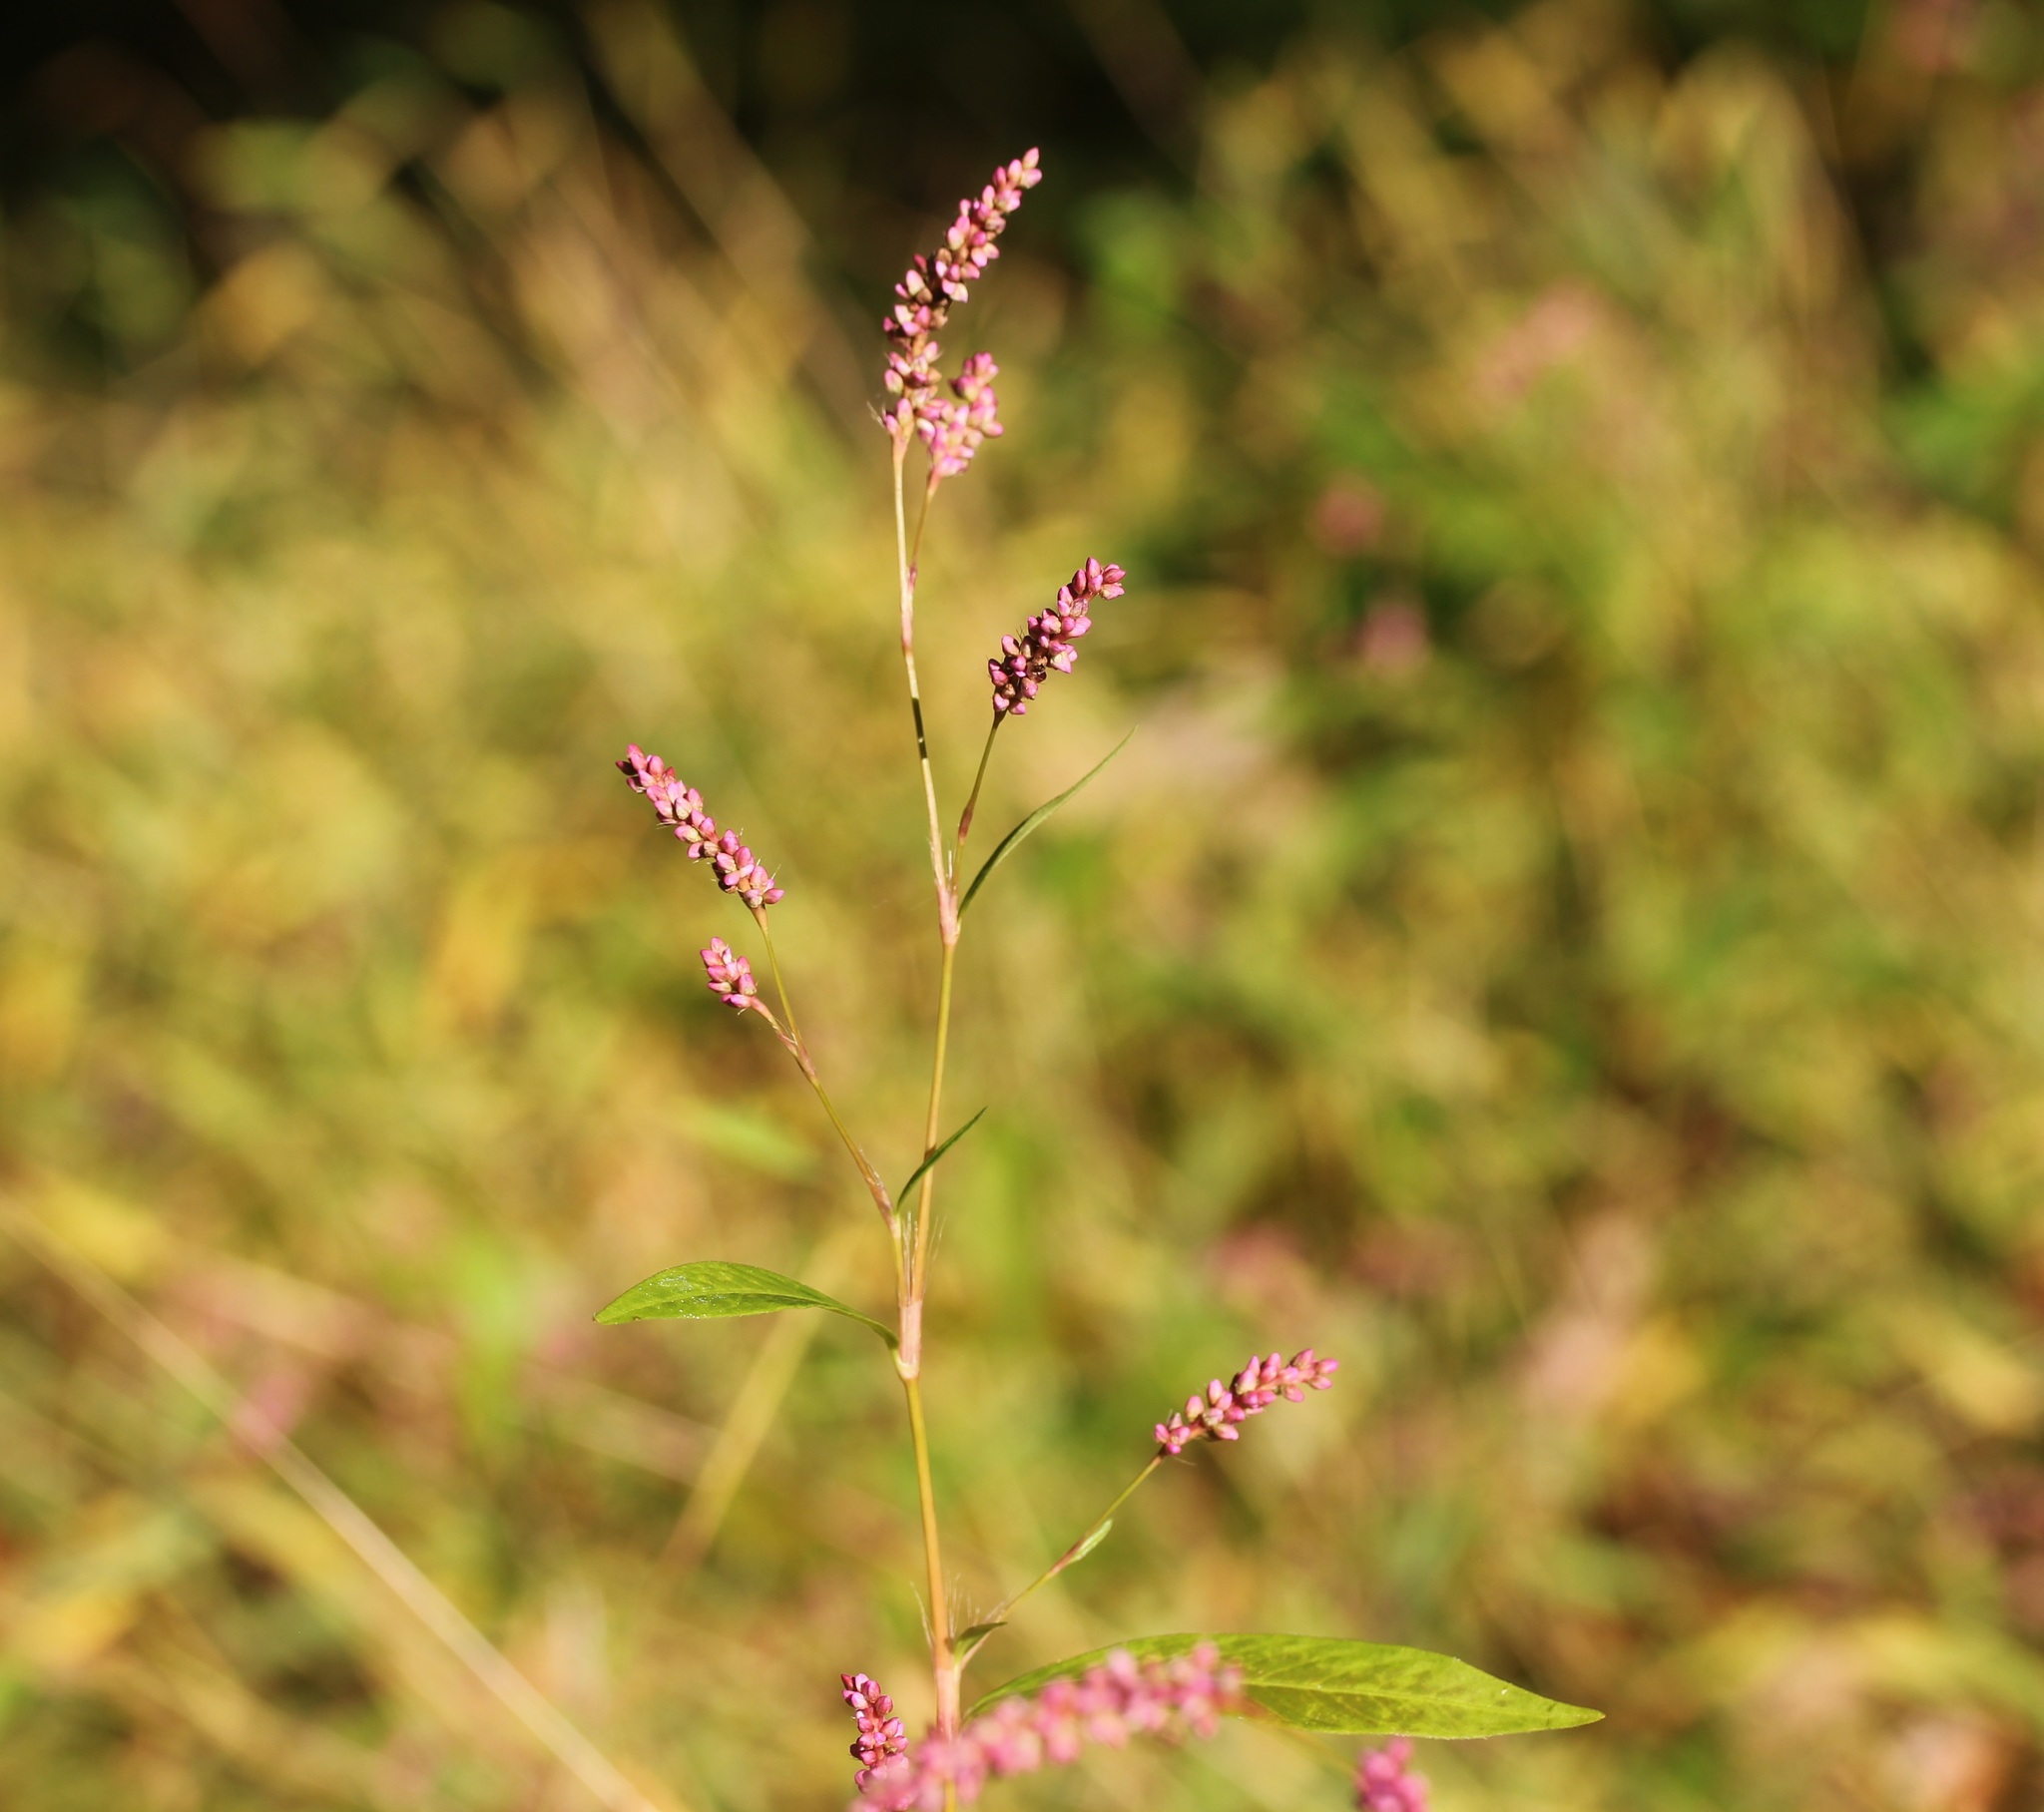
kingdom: Plantae
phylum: Tracheophyta
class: Magnoliopsida
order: Caryophyllales
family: Polygonaceae
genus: Persicaria
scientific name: Persicaria longiseta
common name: Bristly lady's-thumb
